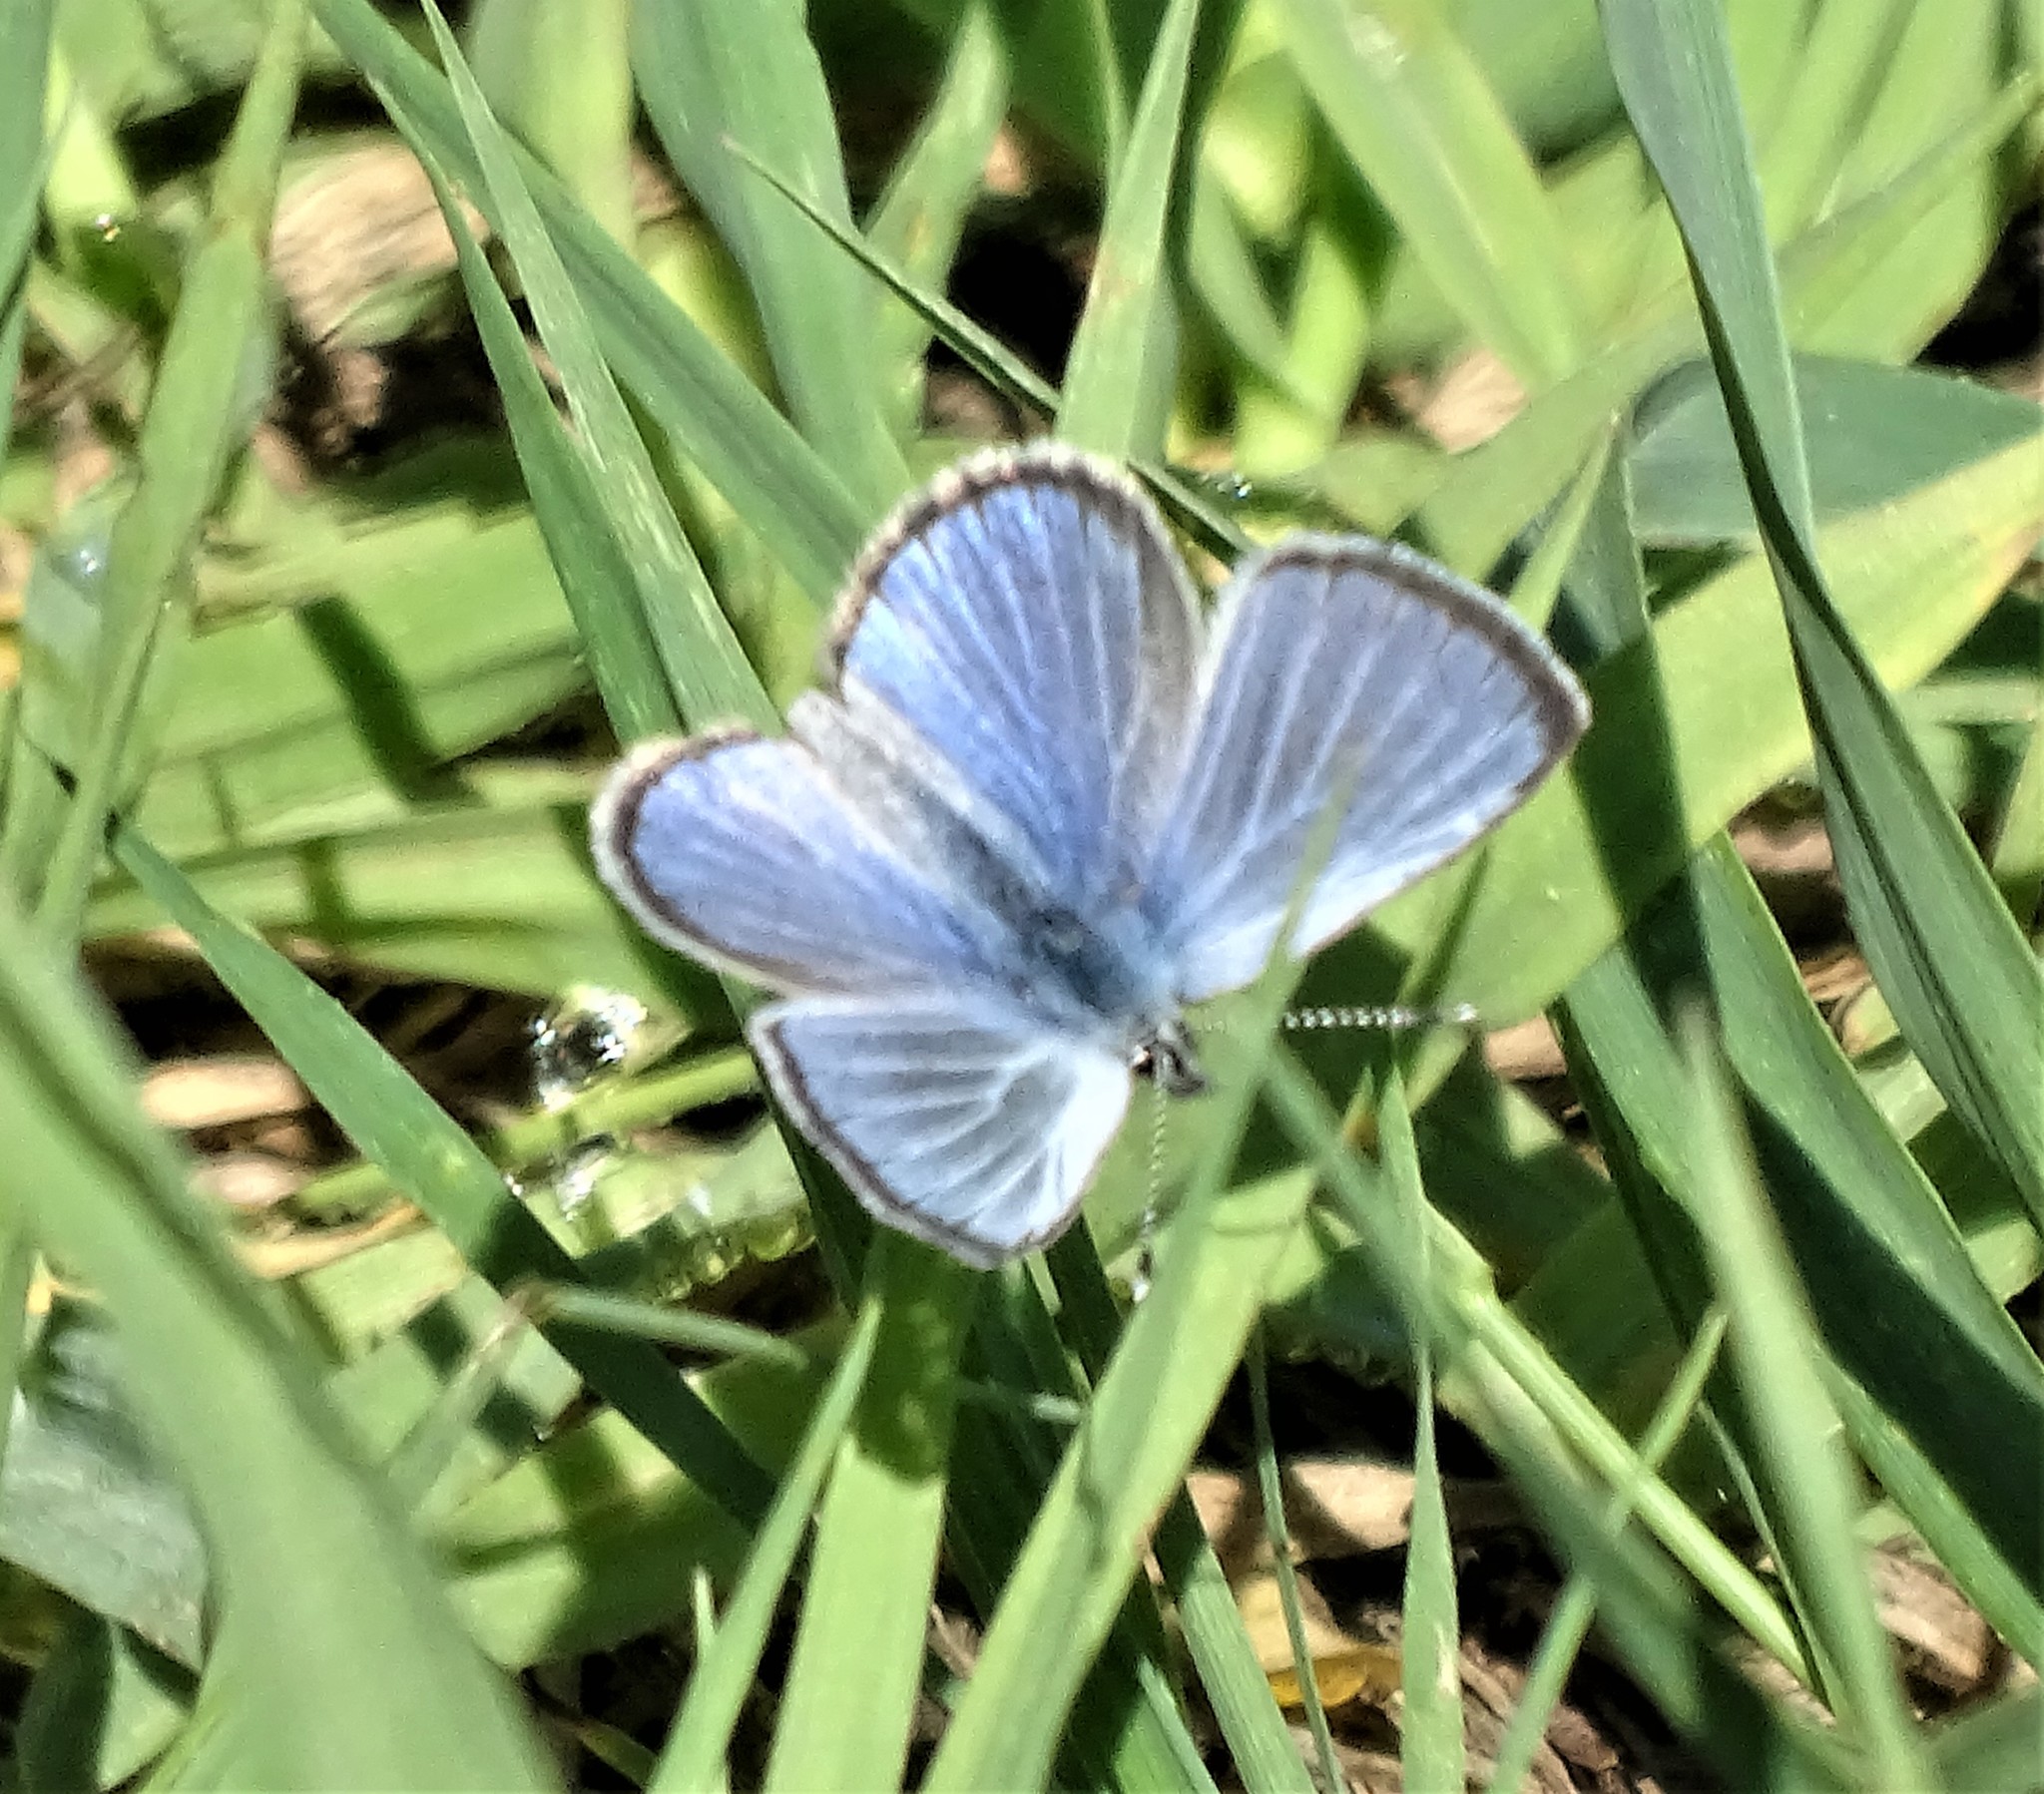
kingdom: Animalia
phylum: Arthropoda
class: Insecta
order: Lepidoptera
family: Lycaenidae
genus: Glaucopsyche
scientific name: Glaucopsyche lygdamus
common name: Silvery blue
